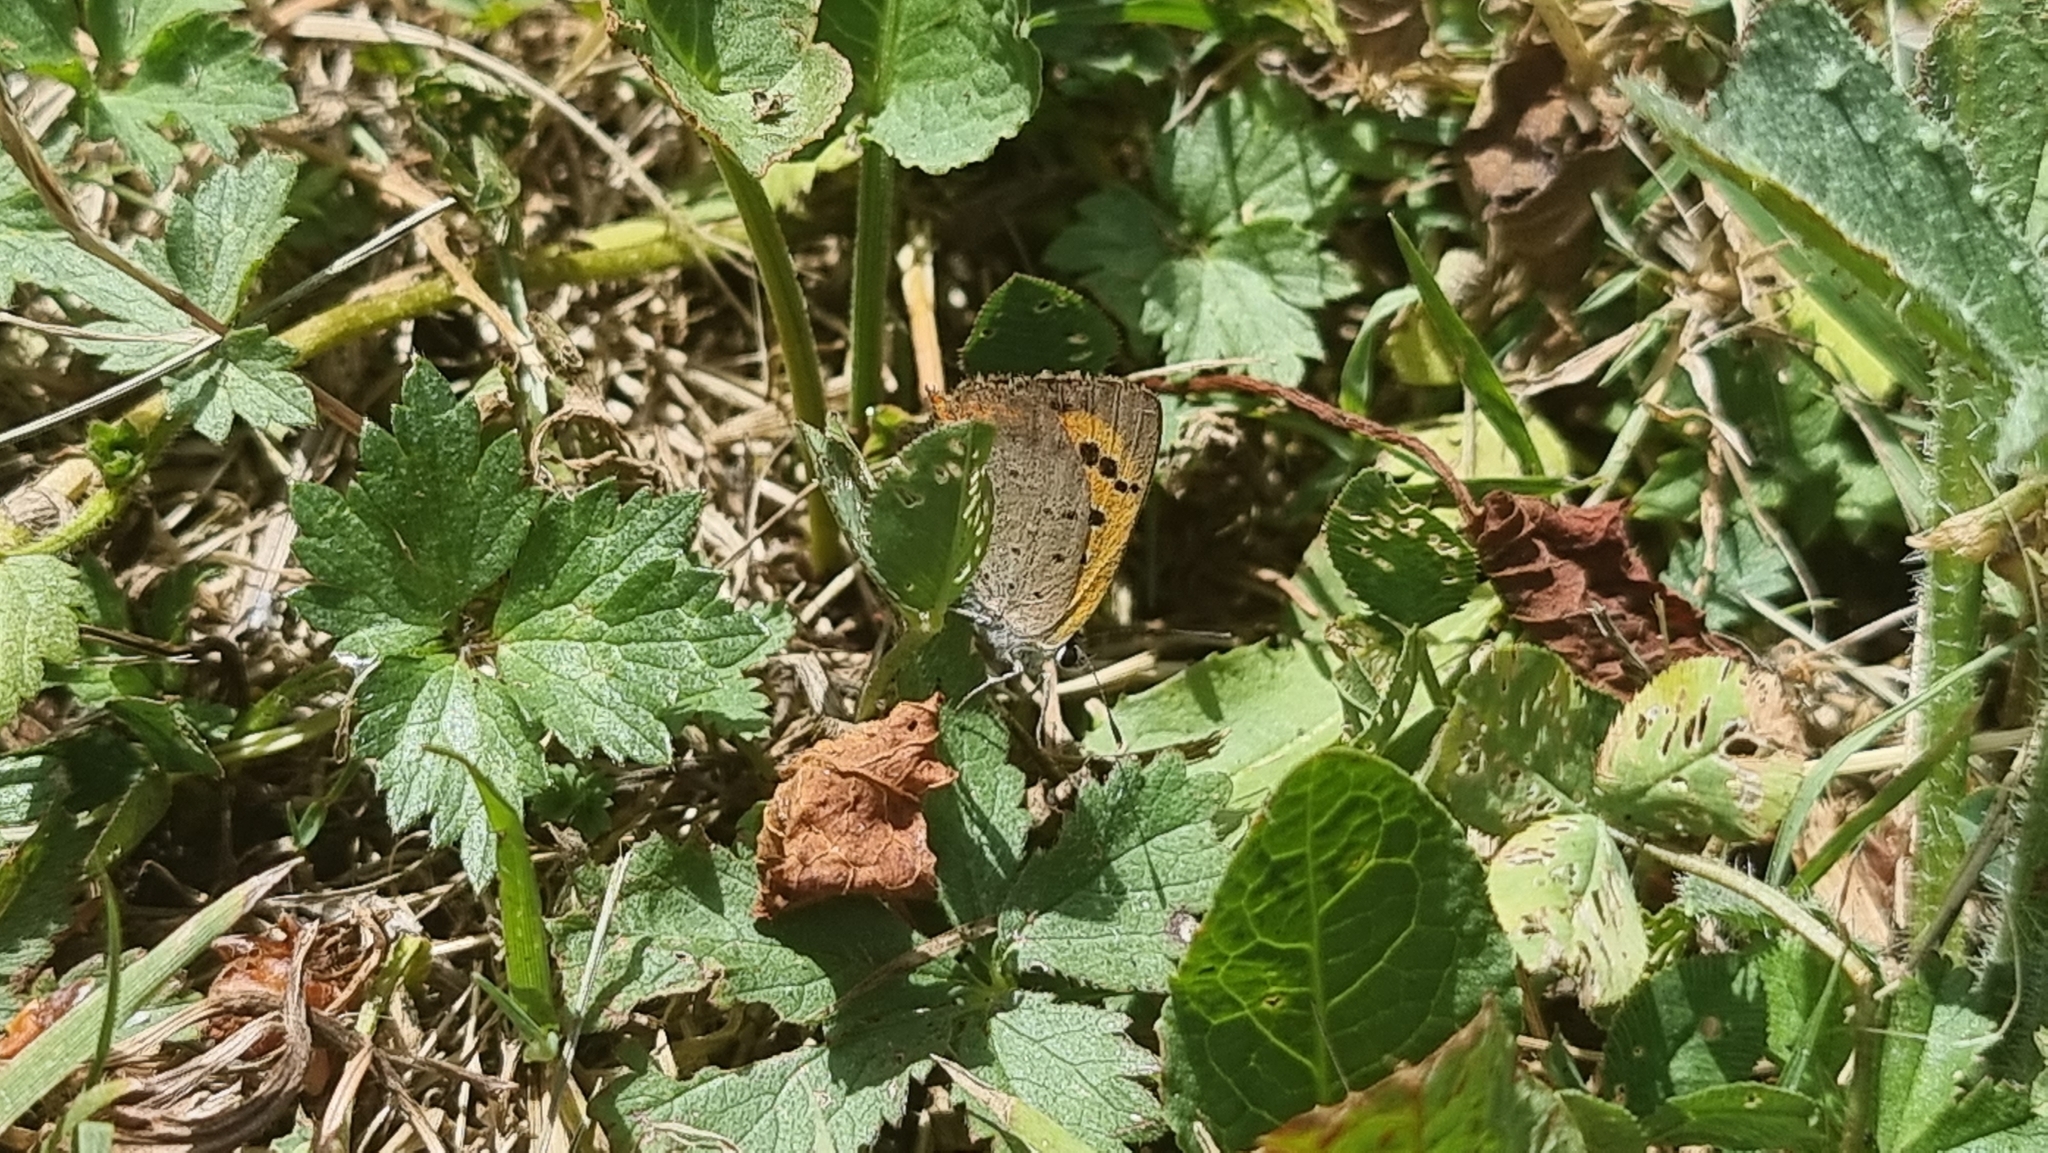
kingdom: Animalia
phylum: Arthropoda
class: Insecta
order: Lepidoptera
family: Lycaenidae
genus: Lycaena
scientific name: Lycaena phlaeas
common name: Small copper
